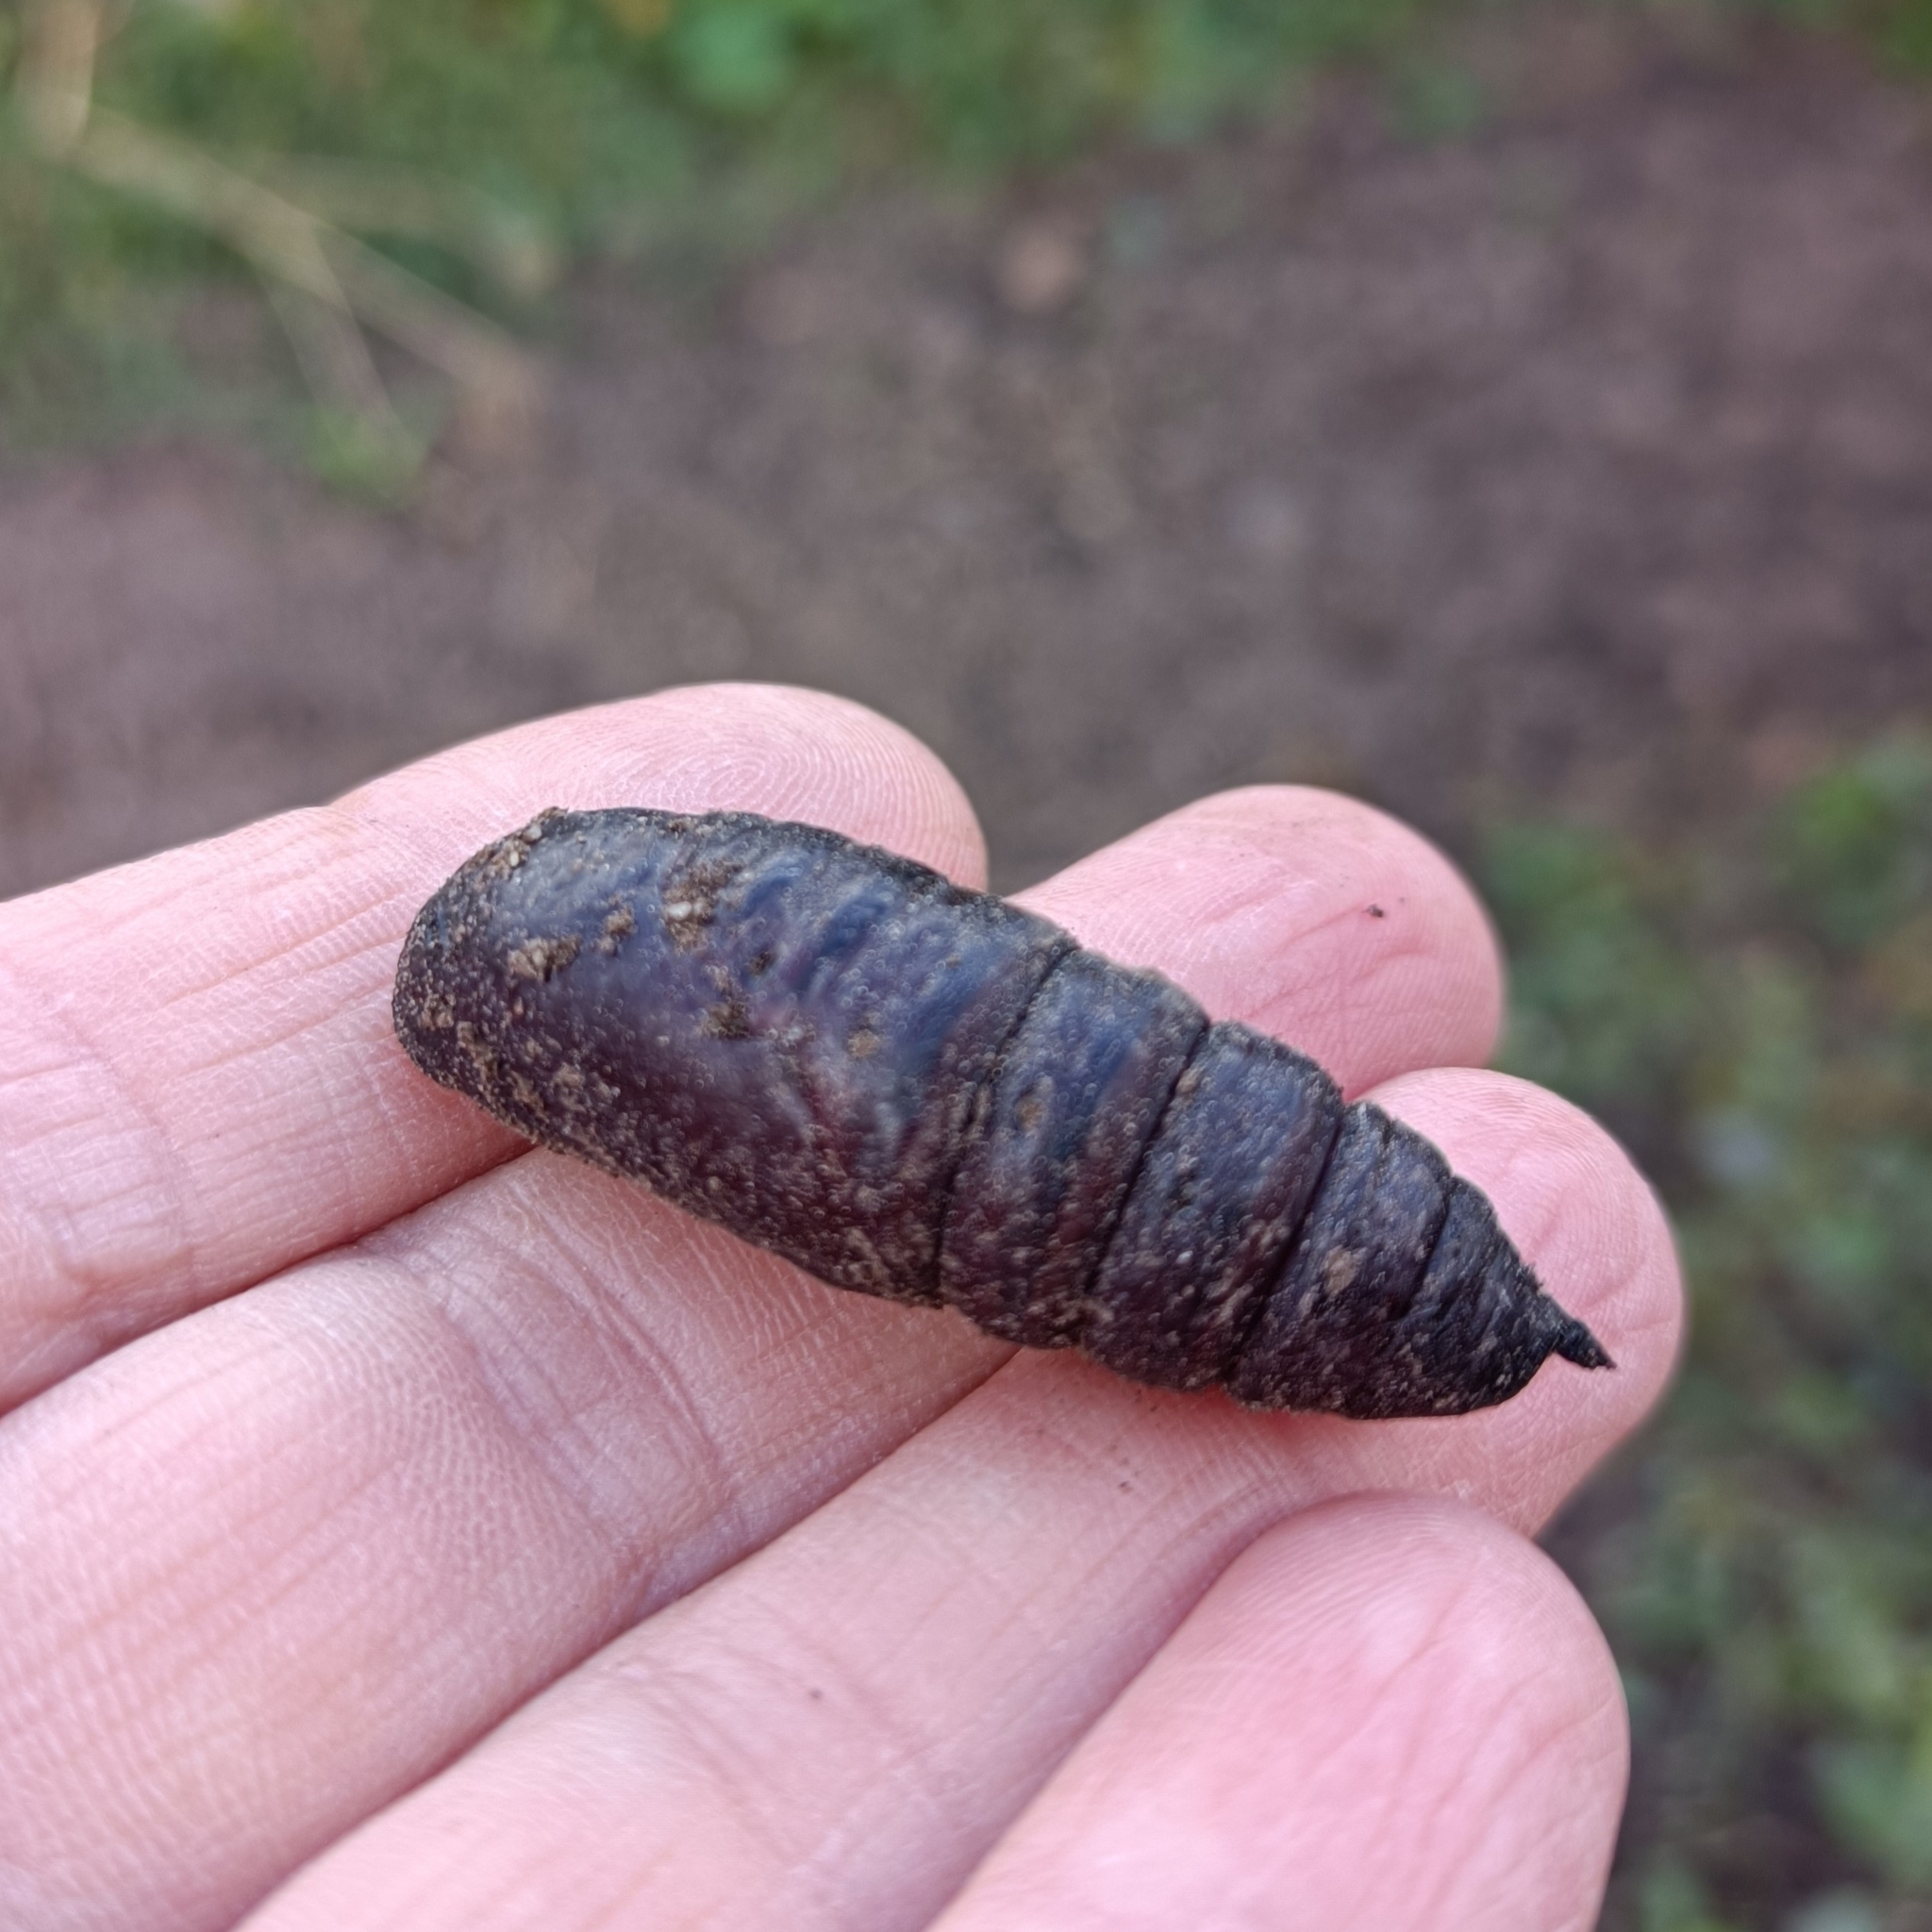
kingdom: Animalia
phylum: Arthropoda
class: Insecta
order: Lepidoptera
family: Sphingidae
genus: Smerinthus
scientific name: Smerinthus ocellata
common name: Eyed hawk-moth
